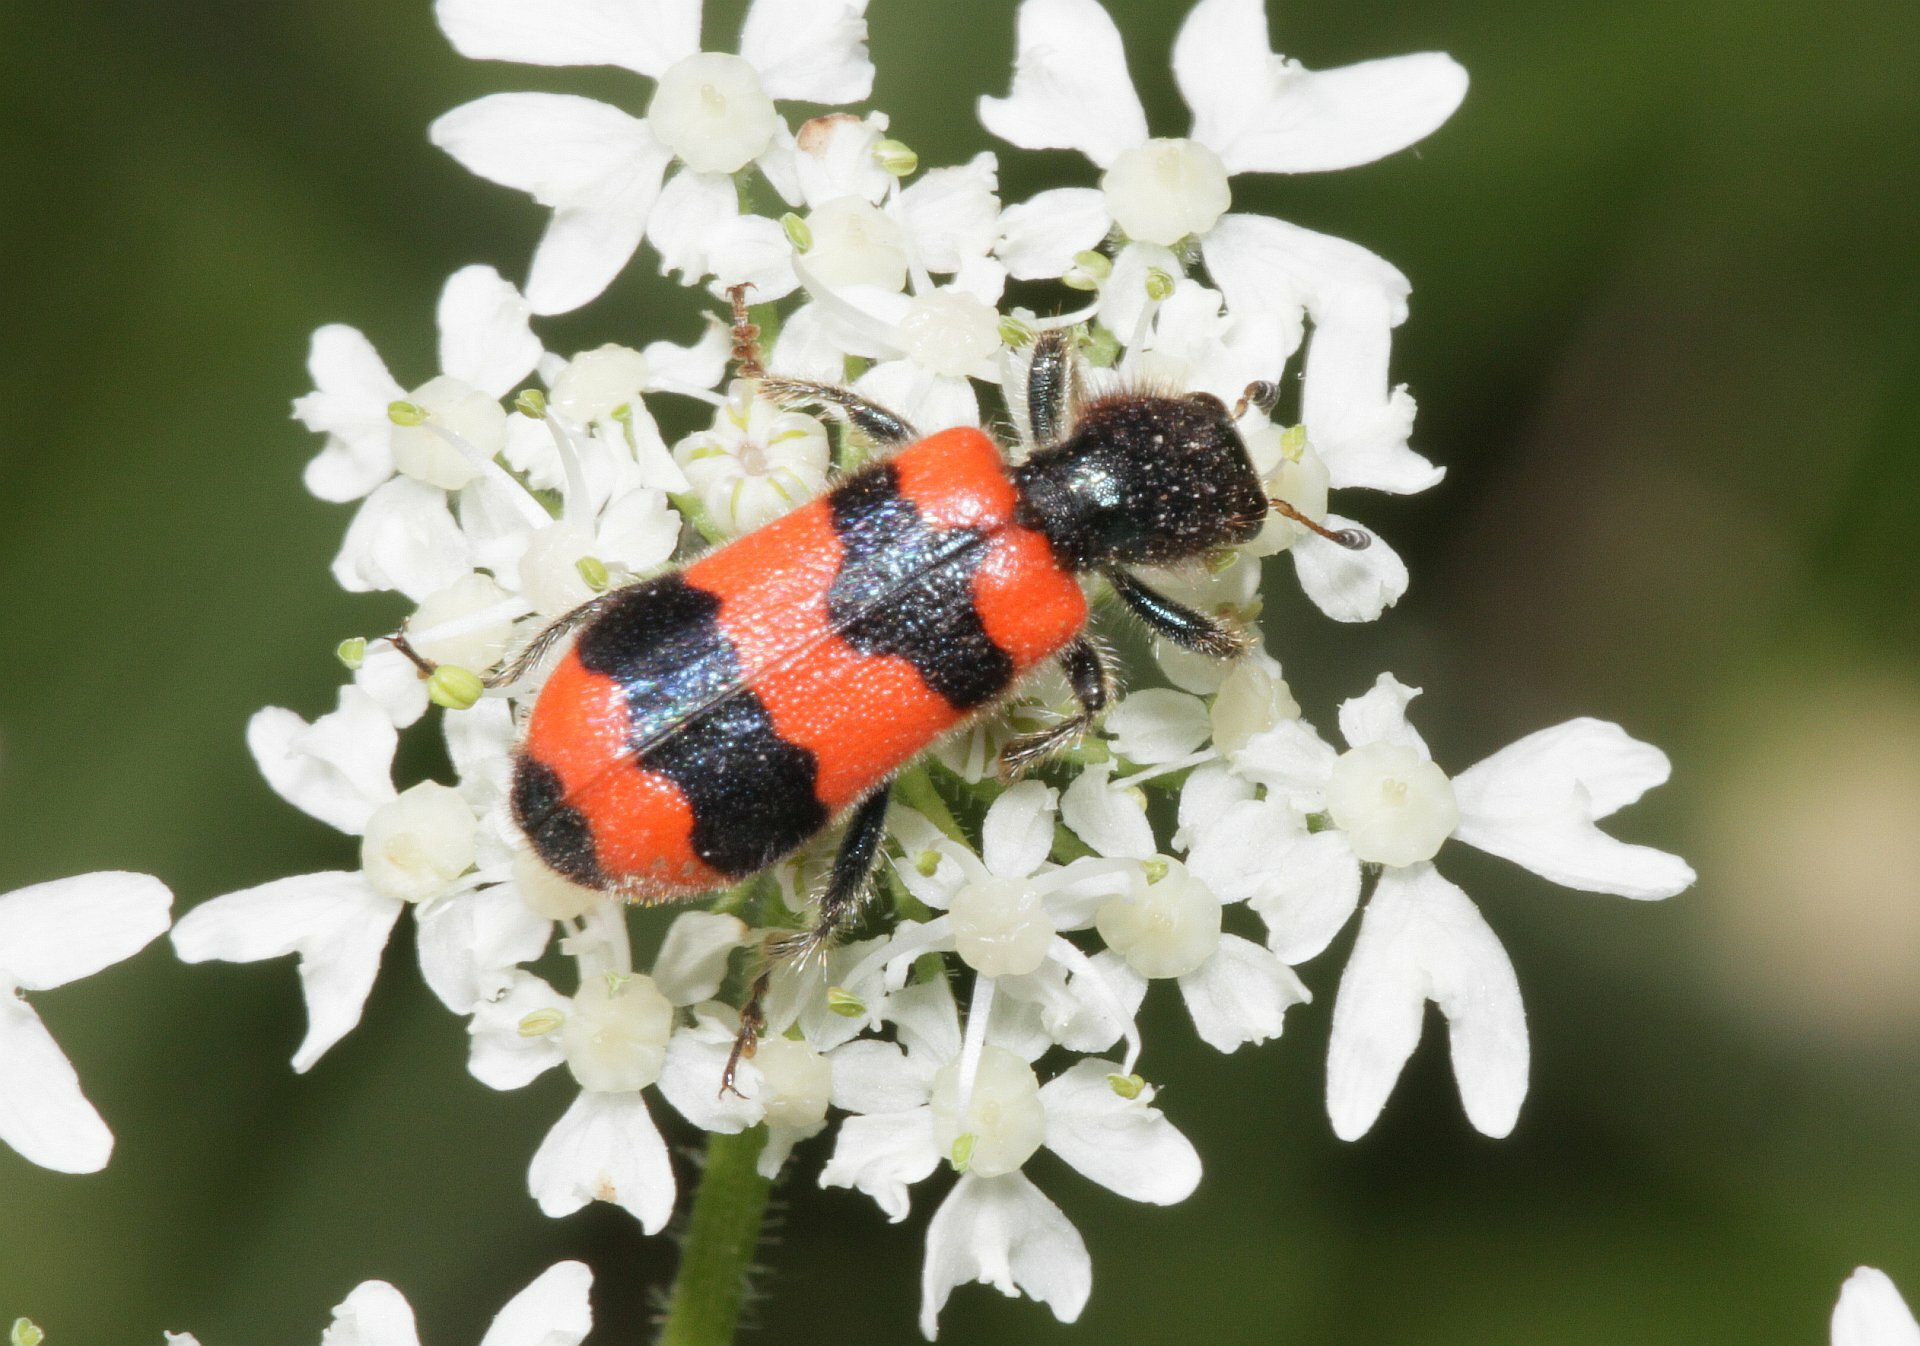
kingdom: Animalia
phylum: Arthropoda
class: Insecta
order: Coleoptera
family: Cleridae
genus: Trichodes
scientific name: Trichodes apiarius
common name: Bee-eating beetle
